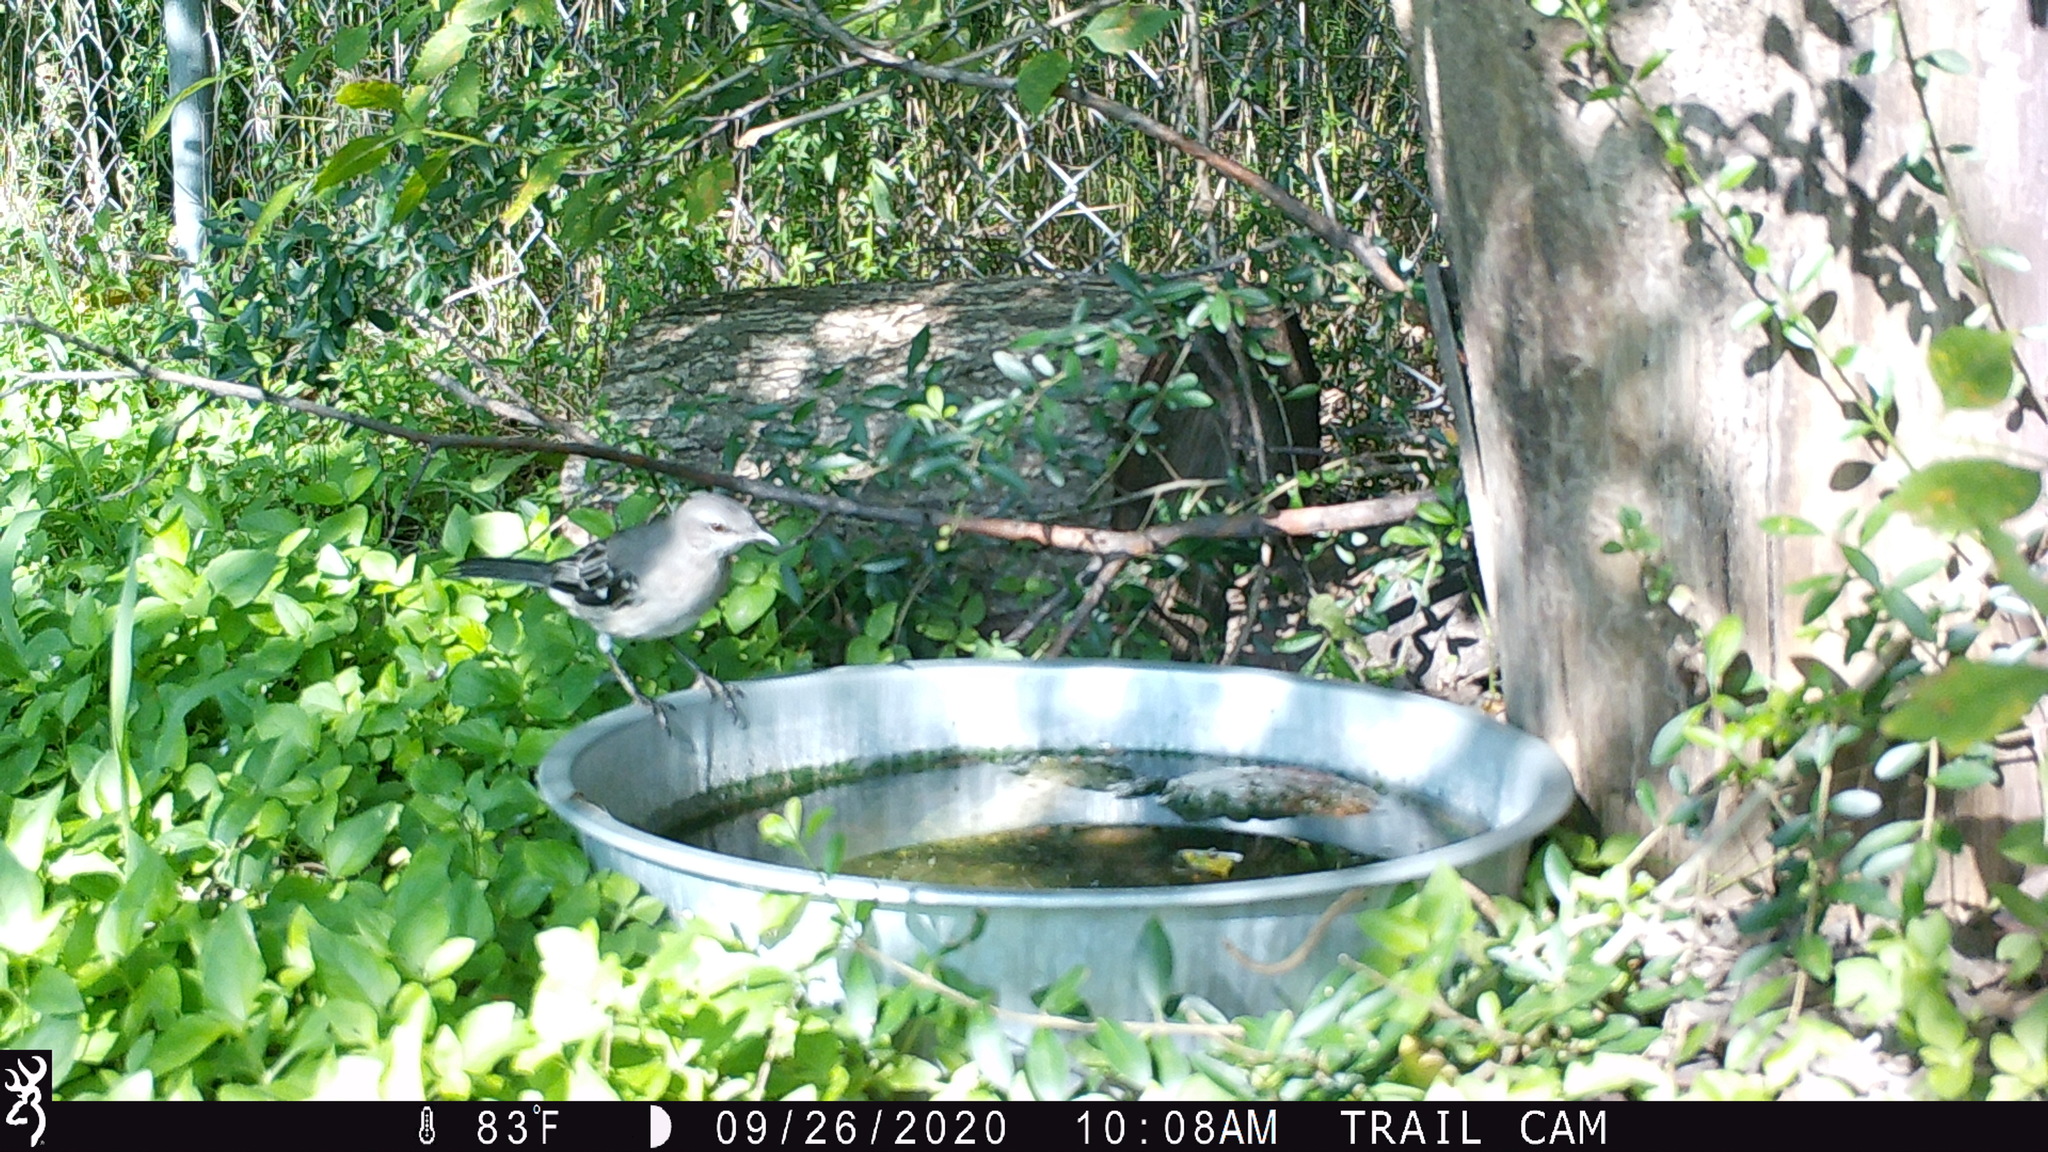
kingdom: Animalia
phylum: Chordata
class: Aves
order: Passeriformes
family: Mimidae
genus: Mimus
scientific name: Mimus polyglottos
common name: Northern mockingbird
